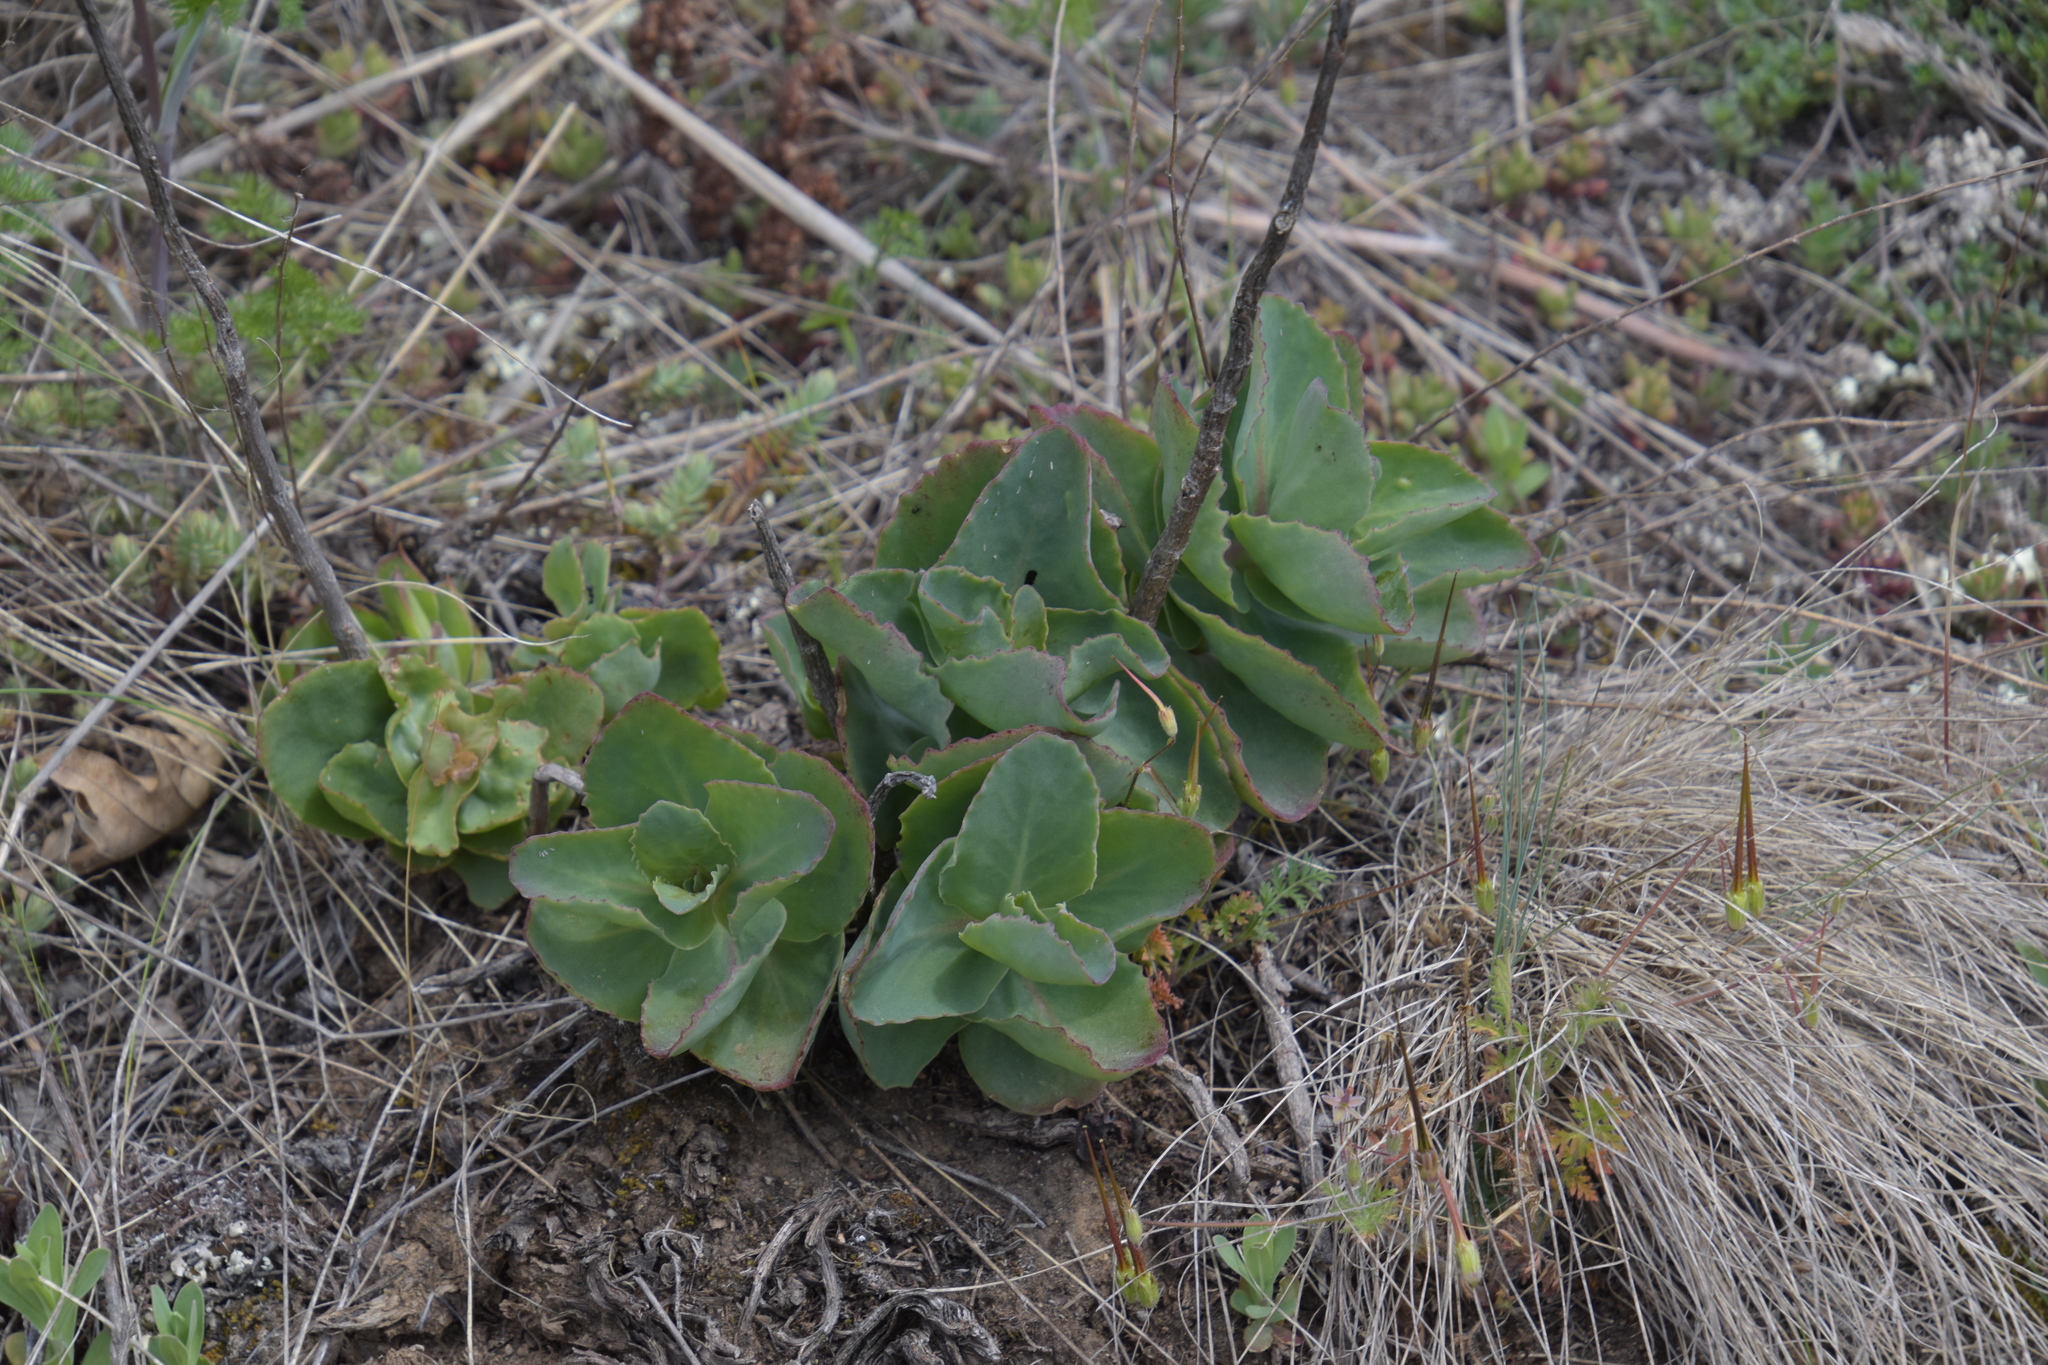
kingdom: Plantae
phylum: Tracheophyta
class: Magnoliopsida
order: Saxifragales
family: Crassulaceae
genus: Hylotelephium
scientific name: Hylotelephium maximum
